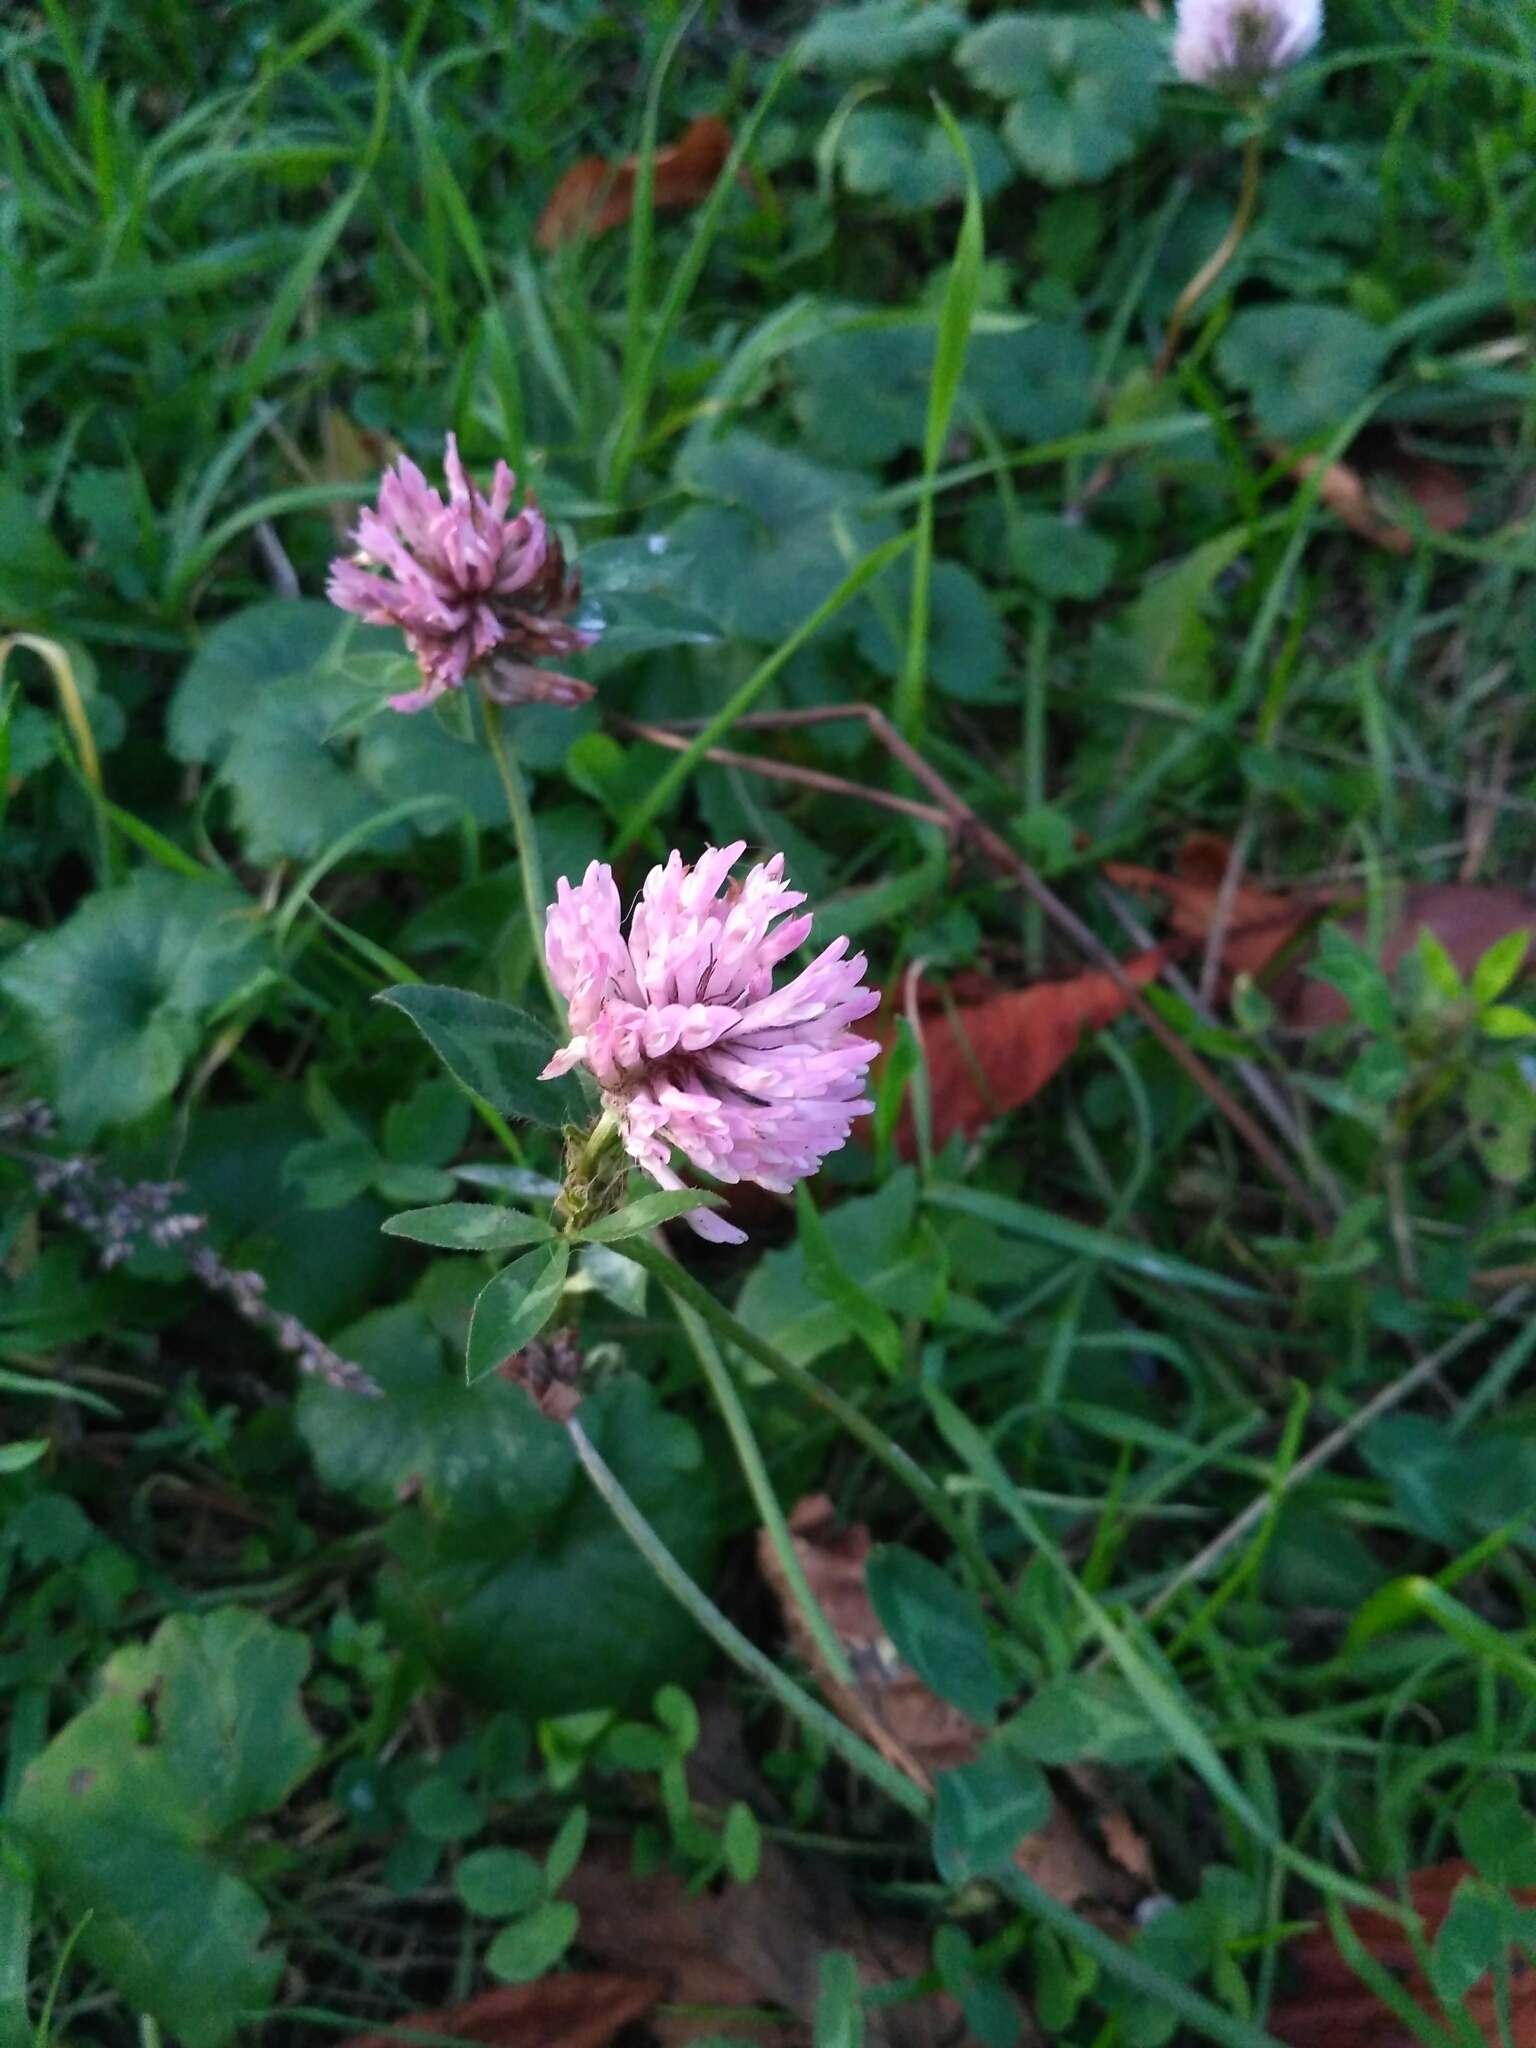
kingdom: Plantae
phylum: Tracheophyta
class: Magnoliopsida
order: Fabales
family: Fabaceae
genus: Trifolium
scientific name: Trifolium pratense
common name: Red clover
